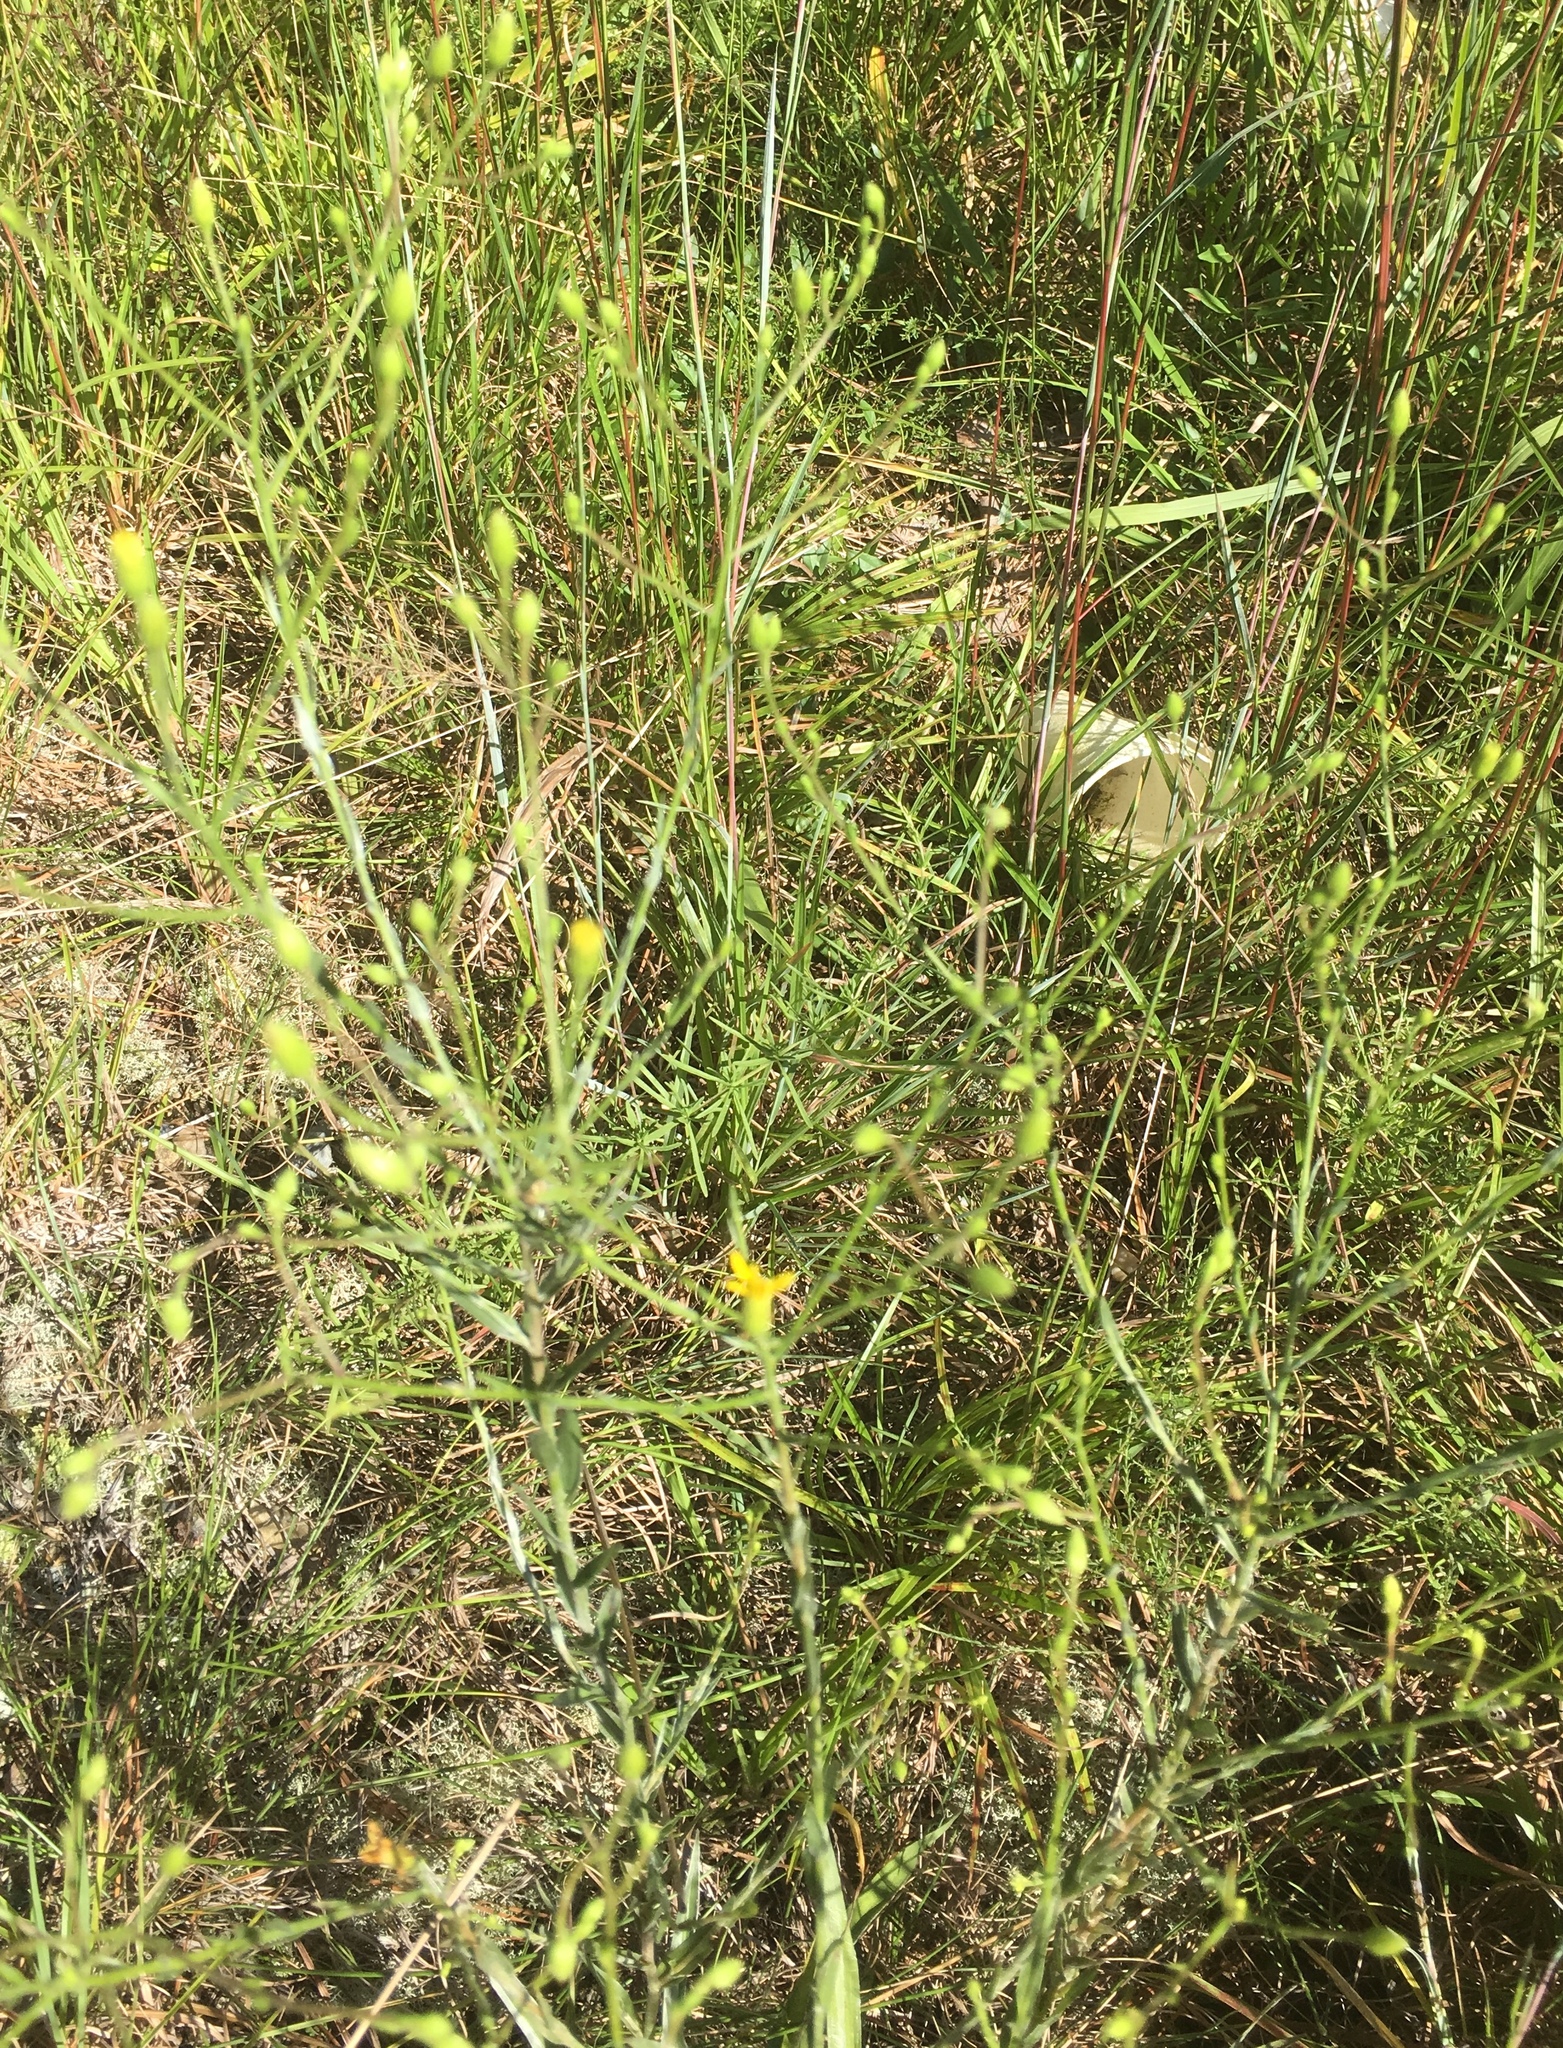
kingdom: Plantae
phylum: Tracheophyta
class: Magnoliopsida
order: Asterales
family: Asteraceae
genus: Pityopsis
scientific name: Pityopsis aspera
